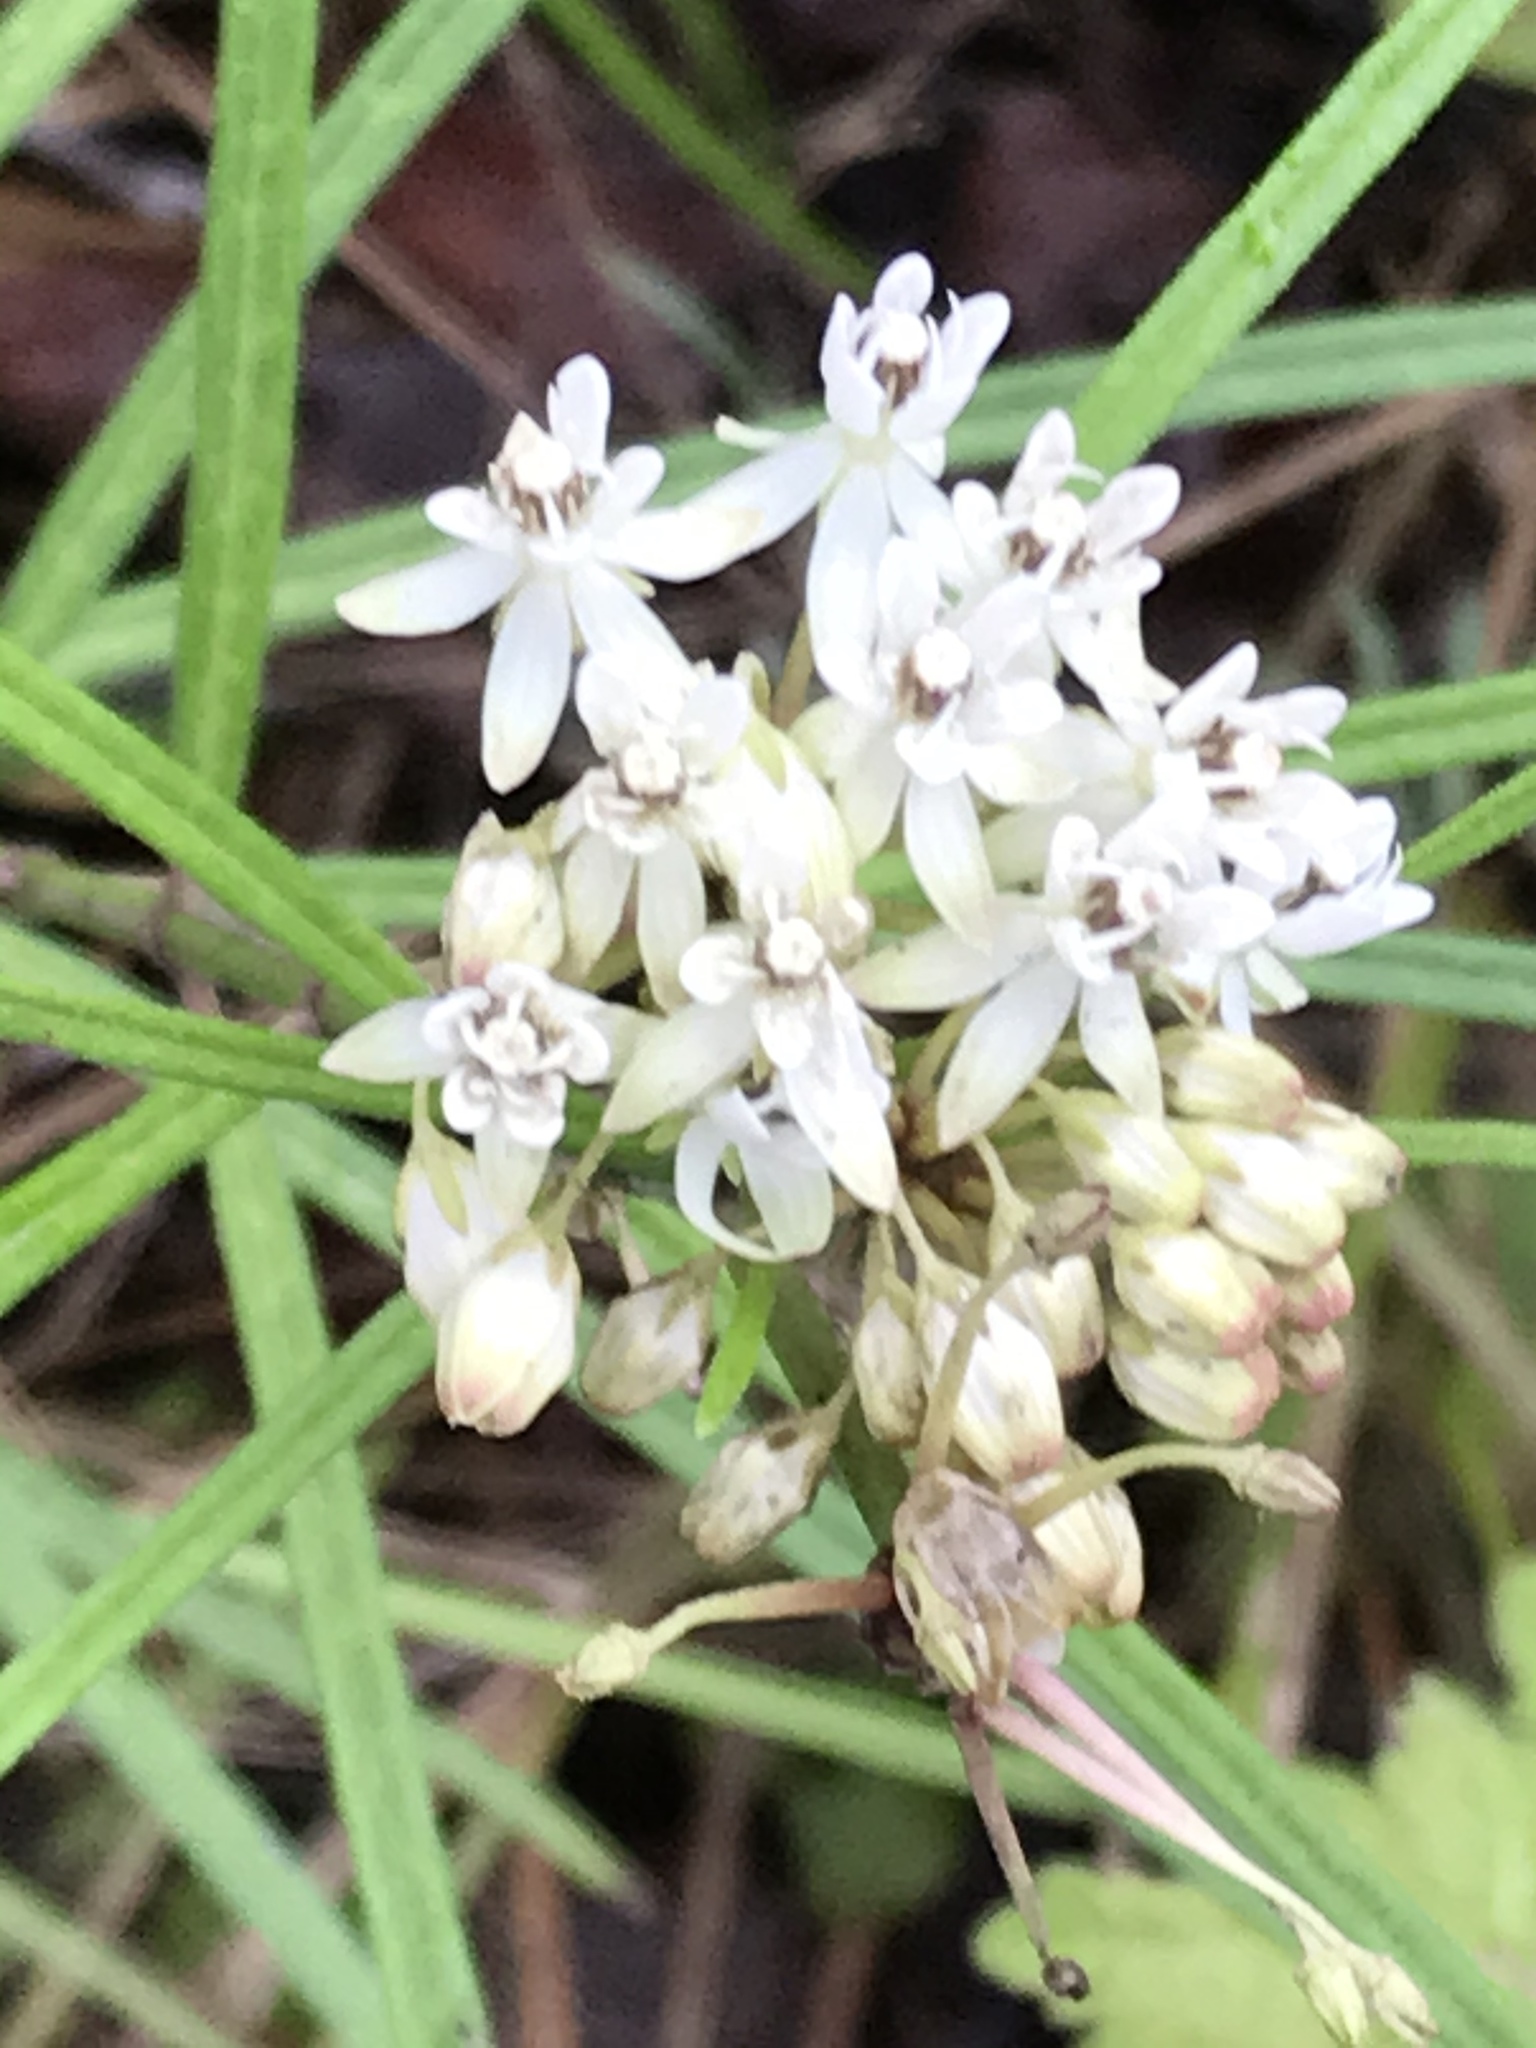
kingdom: Plantae
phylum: Tracheophyta
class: Magnoliopsida
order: Gentianales
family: Apocynaceae
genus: Asclepias
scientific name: Asclepias angustifolia
